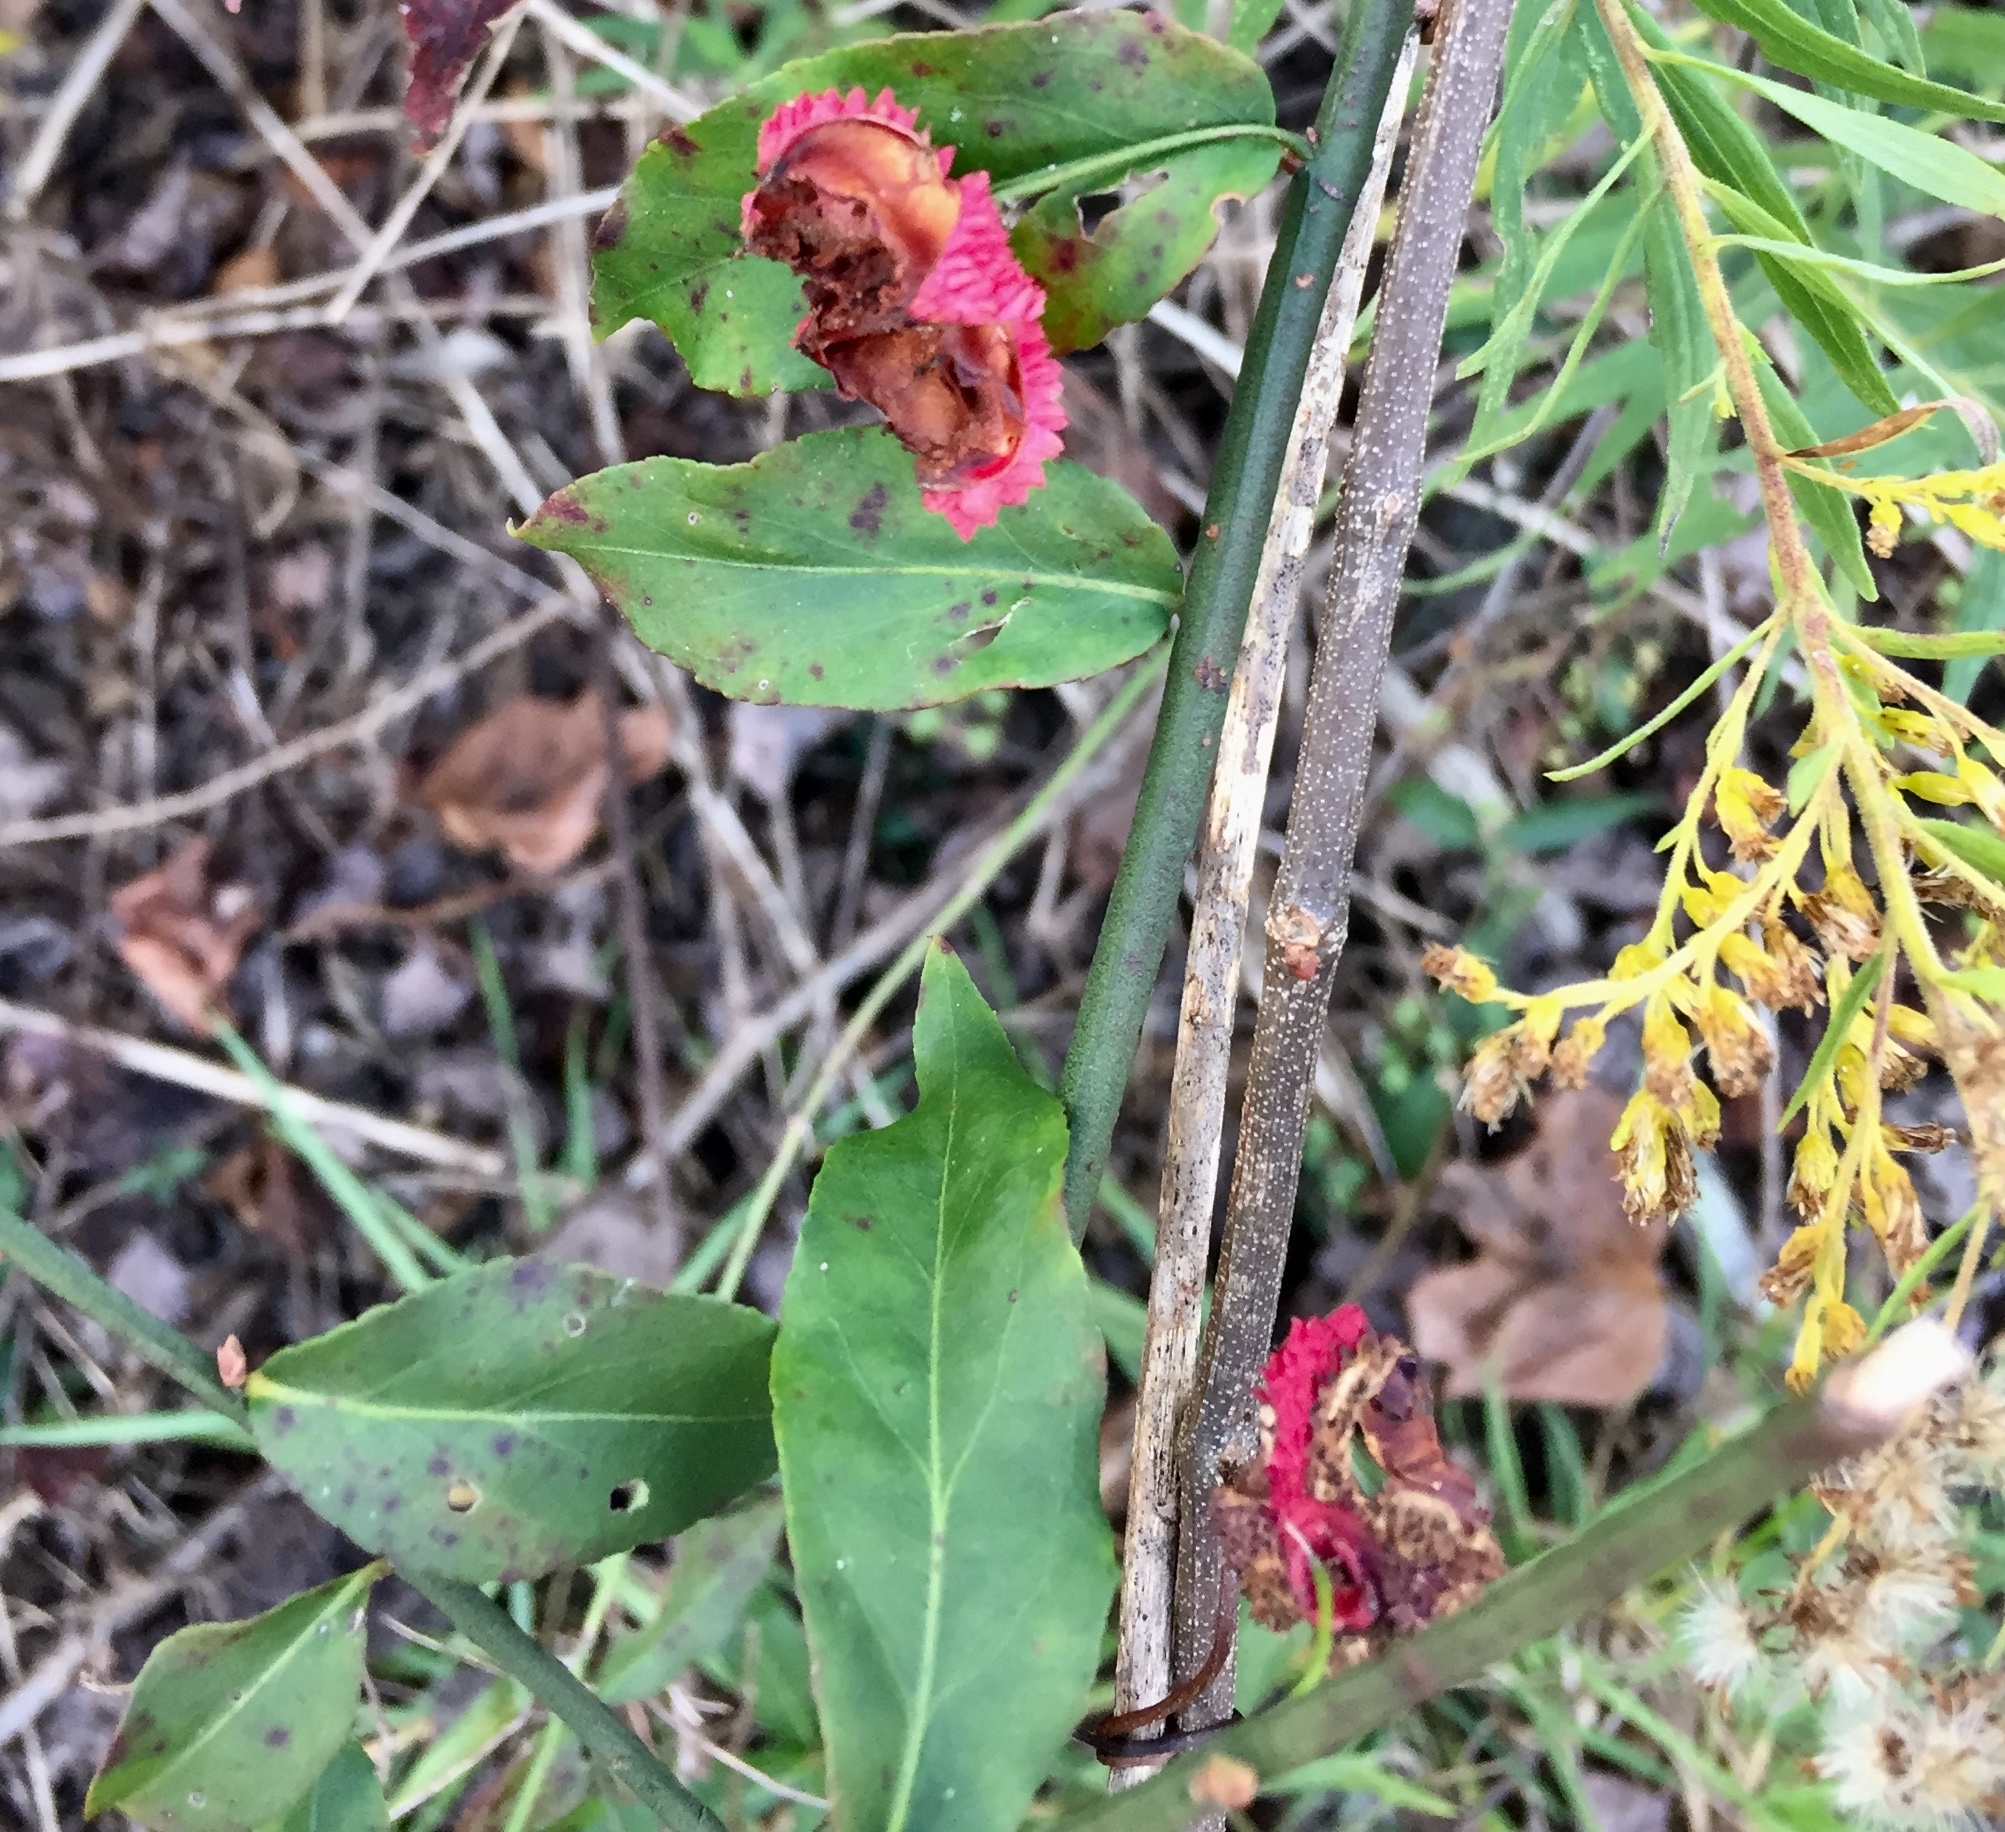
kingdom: Plantae
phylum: Tracheophyta
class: Magnoliopsida
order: Celastrales
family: Celastraceae
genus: Euonymus
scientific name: Euonymus americanus
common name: Bursting-heart
